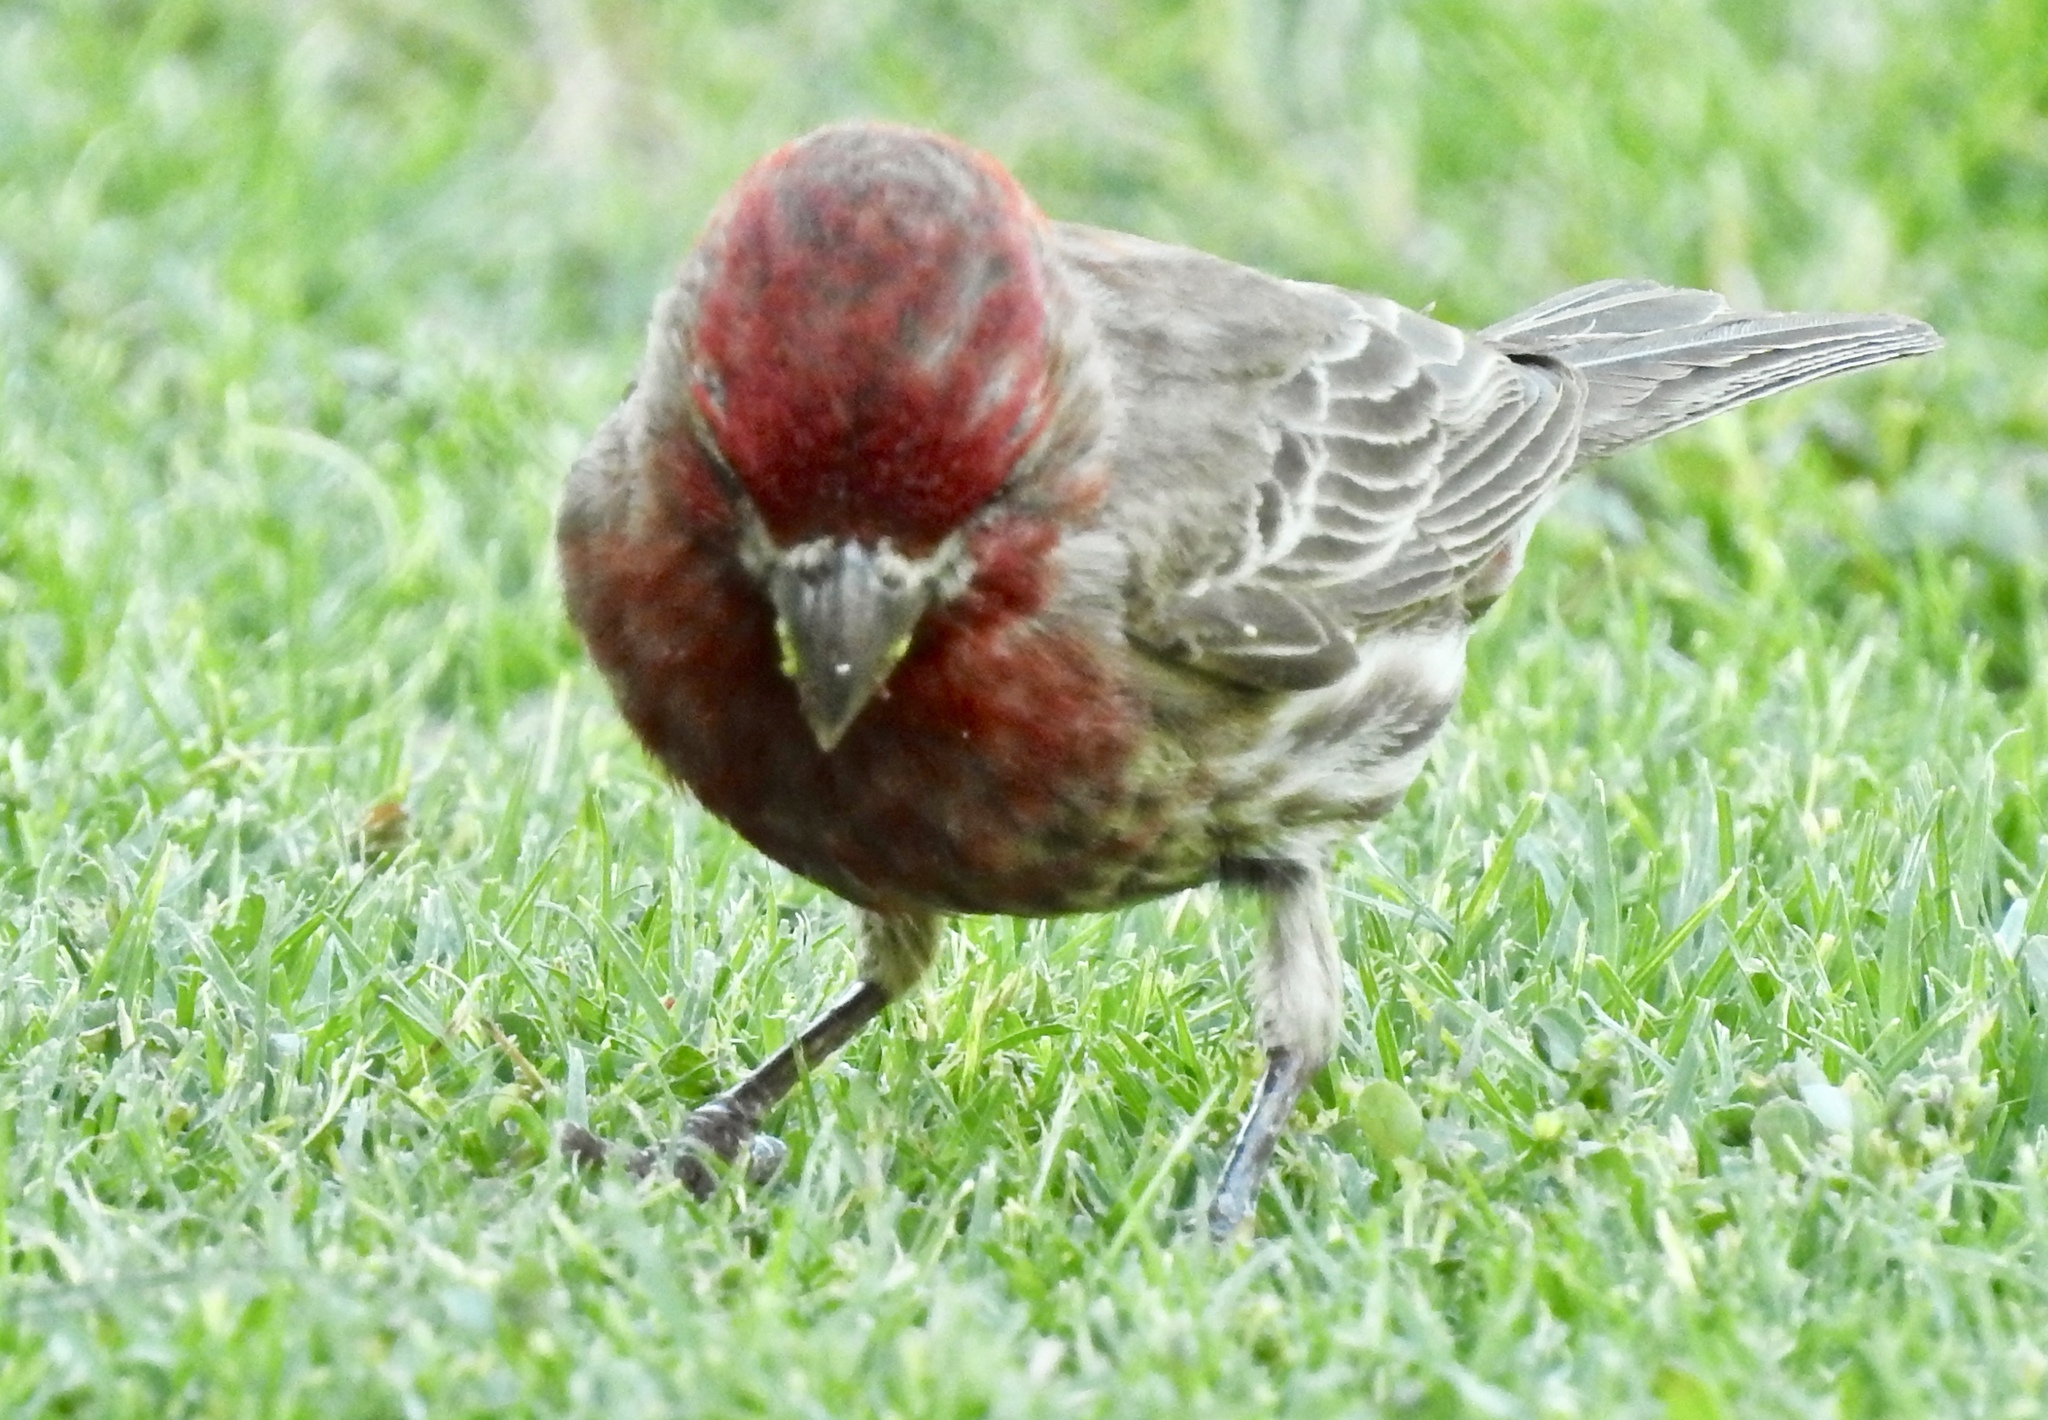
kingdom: Animalia
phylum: Chordata
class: Aves
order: Passeriformes
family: Fringillidae
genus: Haemorhous
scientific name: Haemorhous mexicanus
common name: House finch
